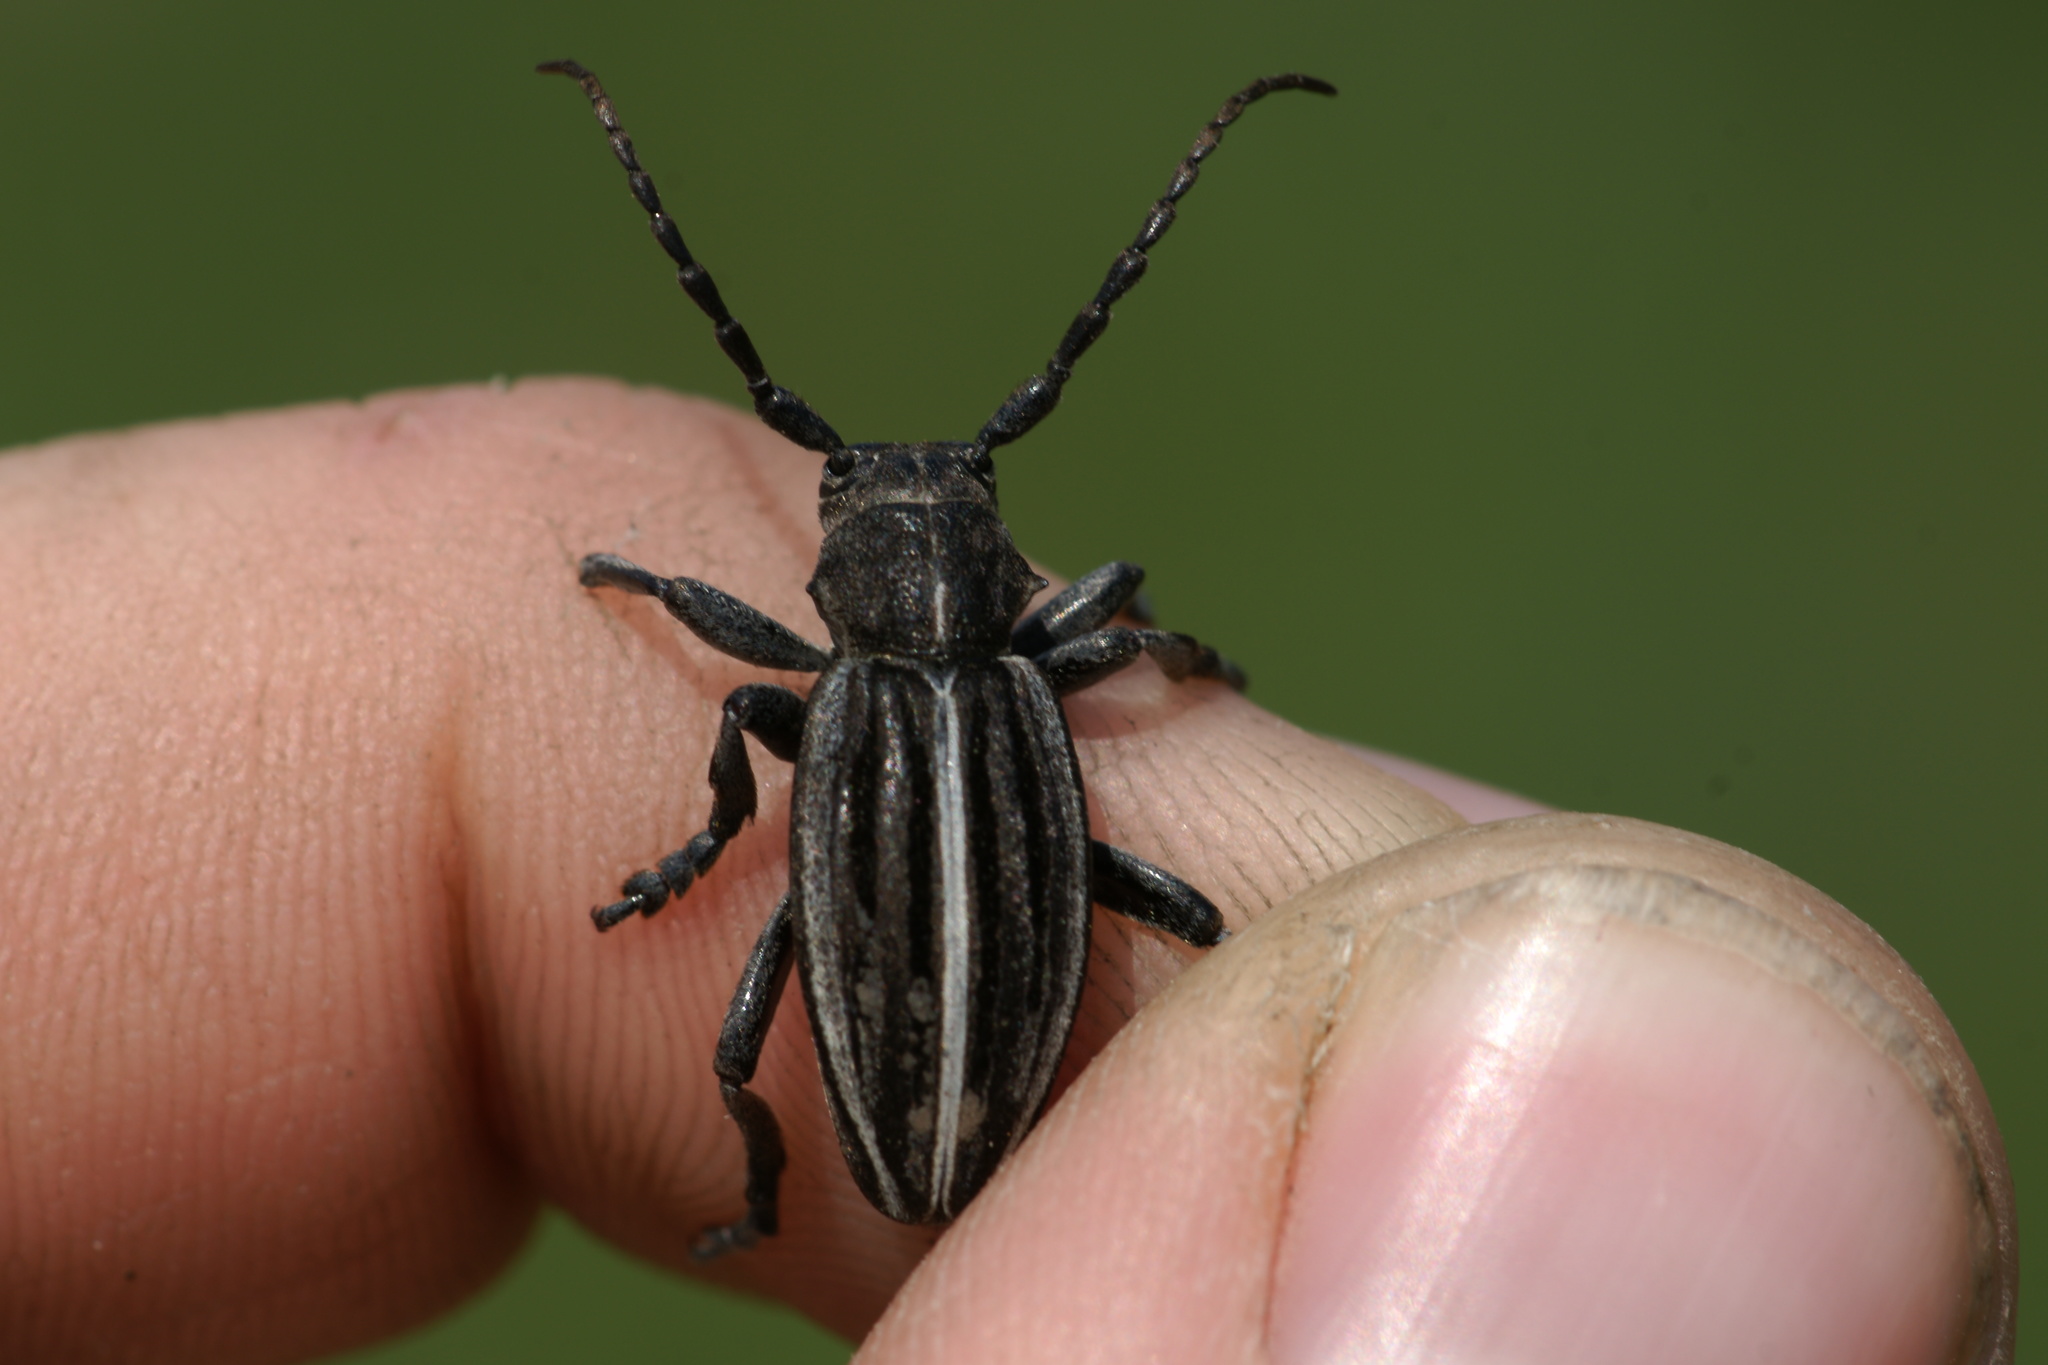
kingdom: Animalia
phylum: Arthropoda
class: Insecta
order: Coleoptera
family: Cerambycidae
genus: Dorcadion
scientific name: Dorcadion holosericeum
